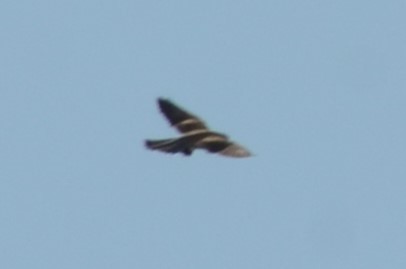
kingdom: Animalia
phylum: Chordata
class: Aves
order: Falconiformes
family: Falconidae
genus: Falco
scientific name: Falco tinnunculus
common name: Common kestrel
